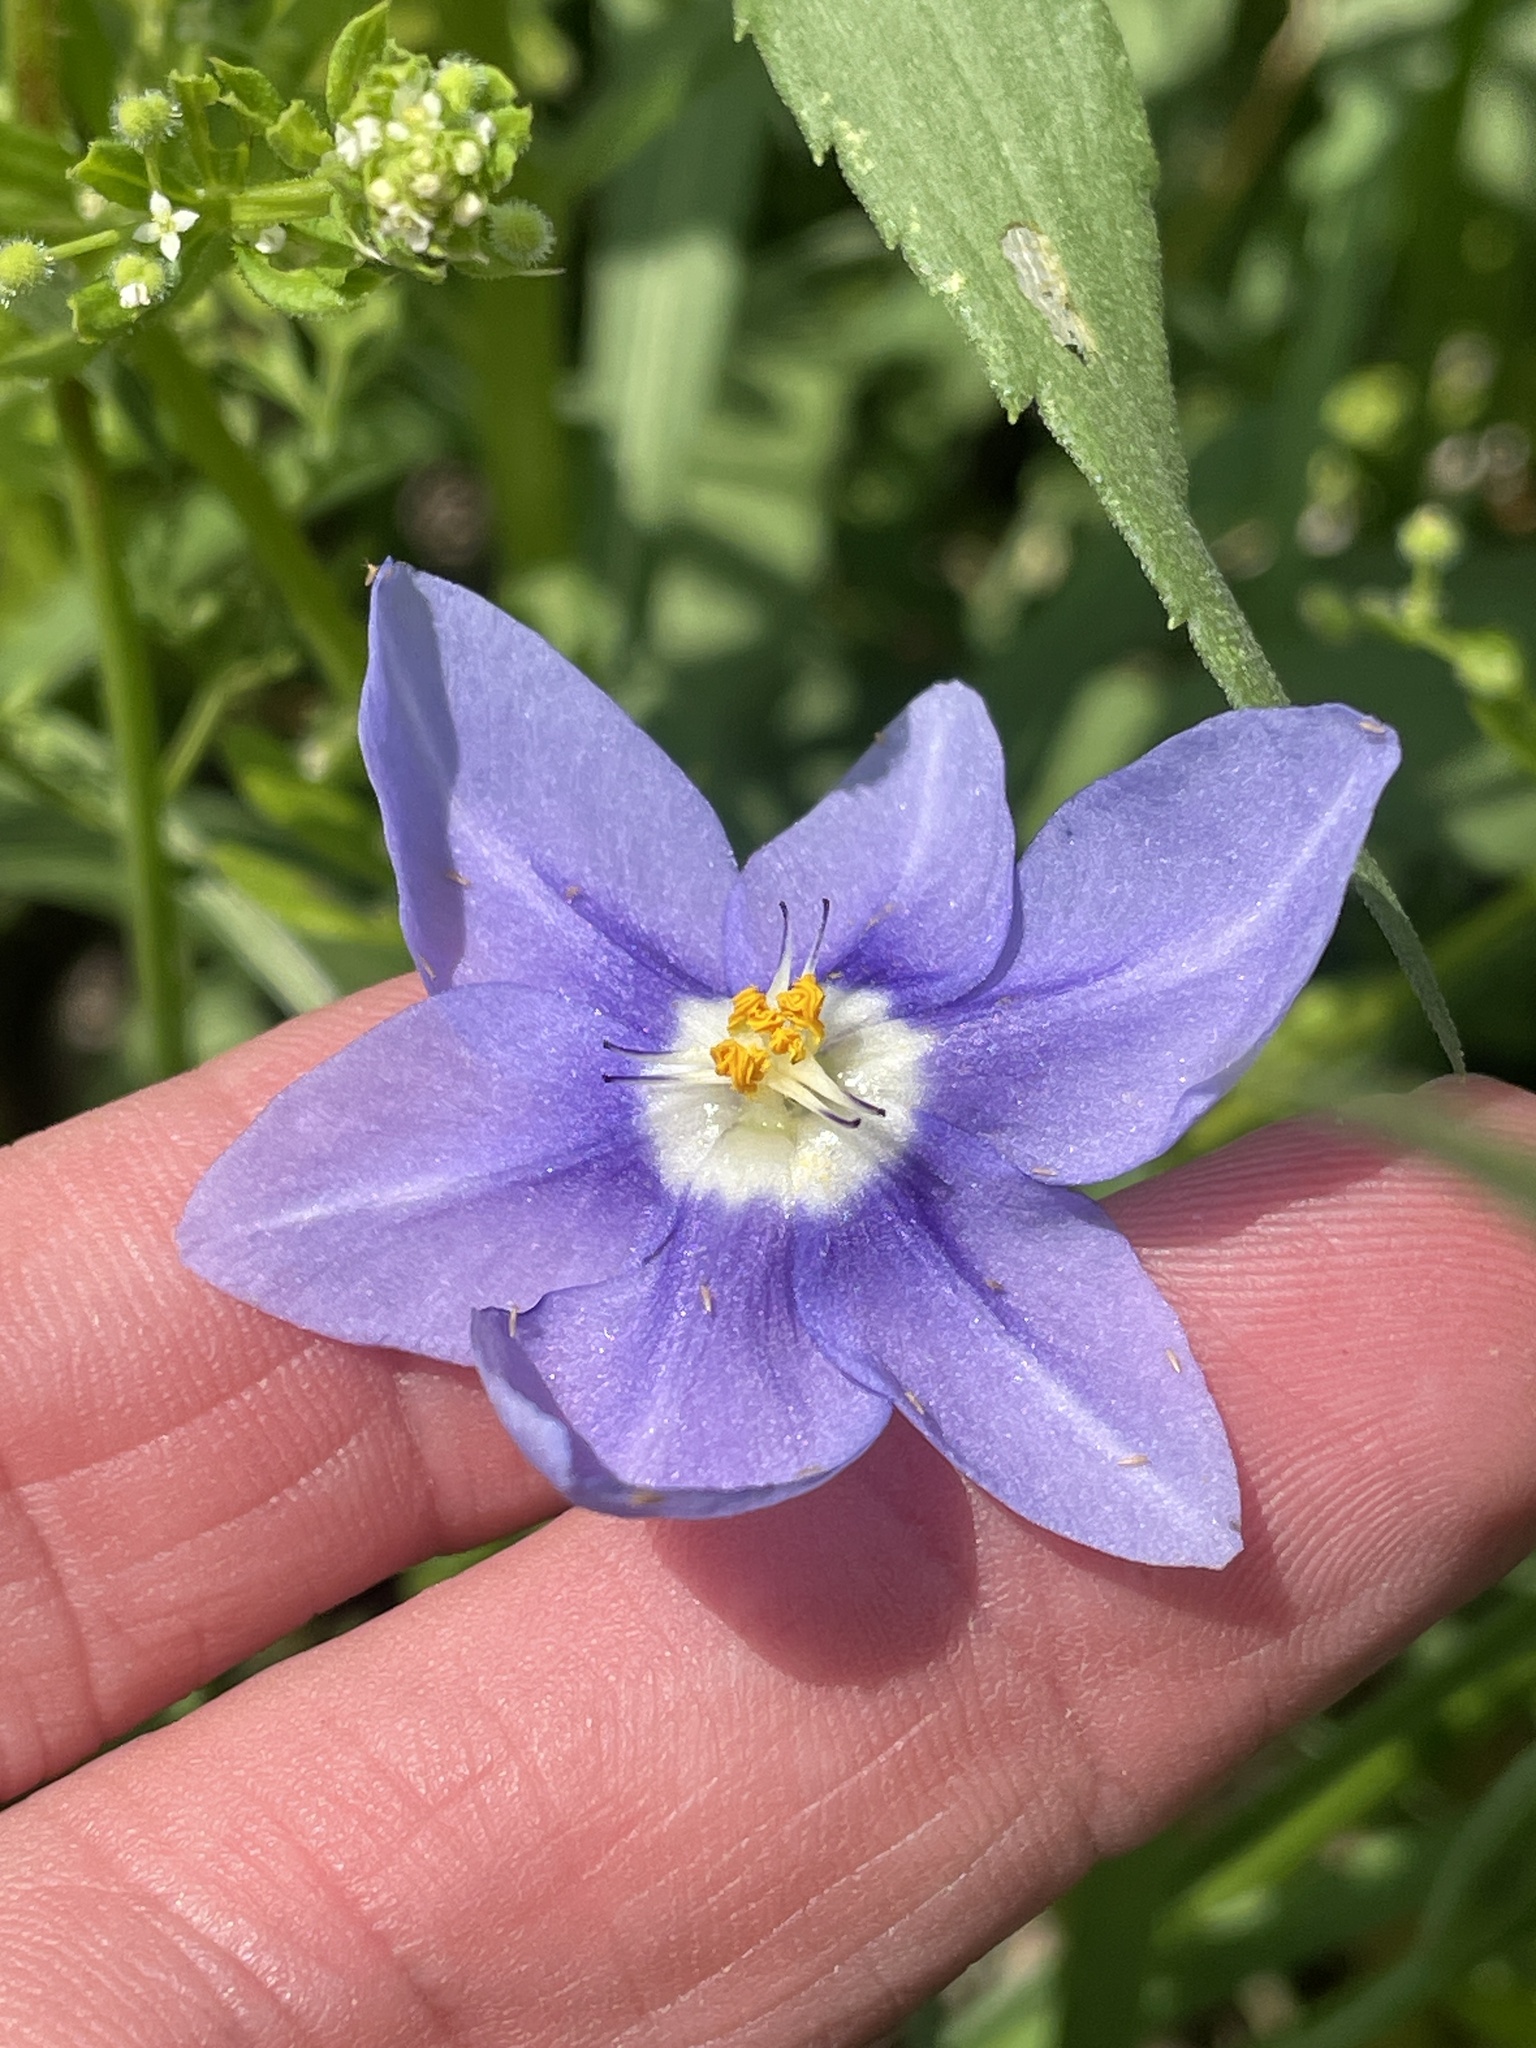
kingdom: Plantae
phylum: Tracheophyta
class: Liliopsida
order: Asparagales
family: Iridaceae
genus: Nemastylis
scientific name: Nemastylis geminiflora
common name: Prairie celestial
